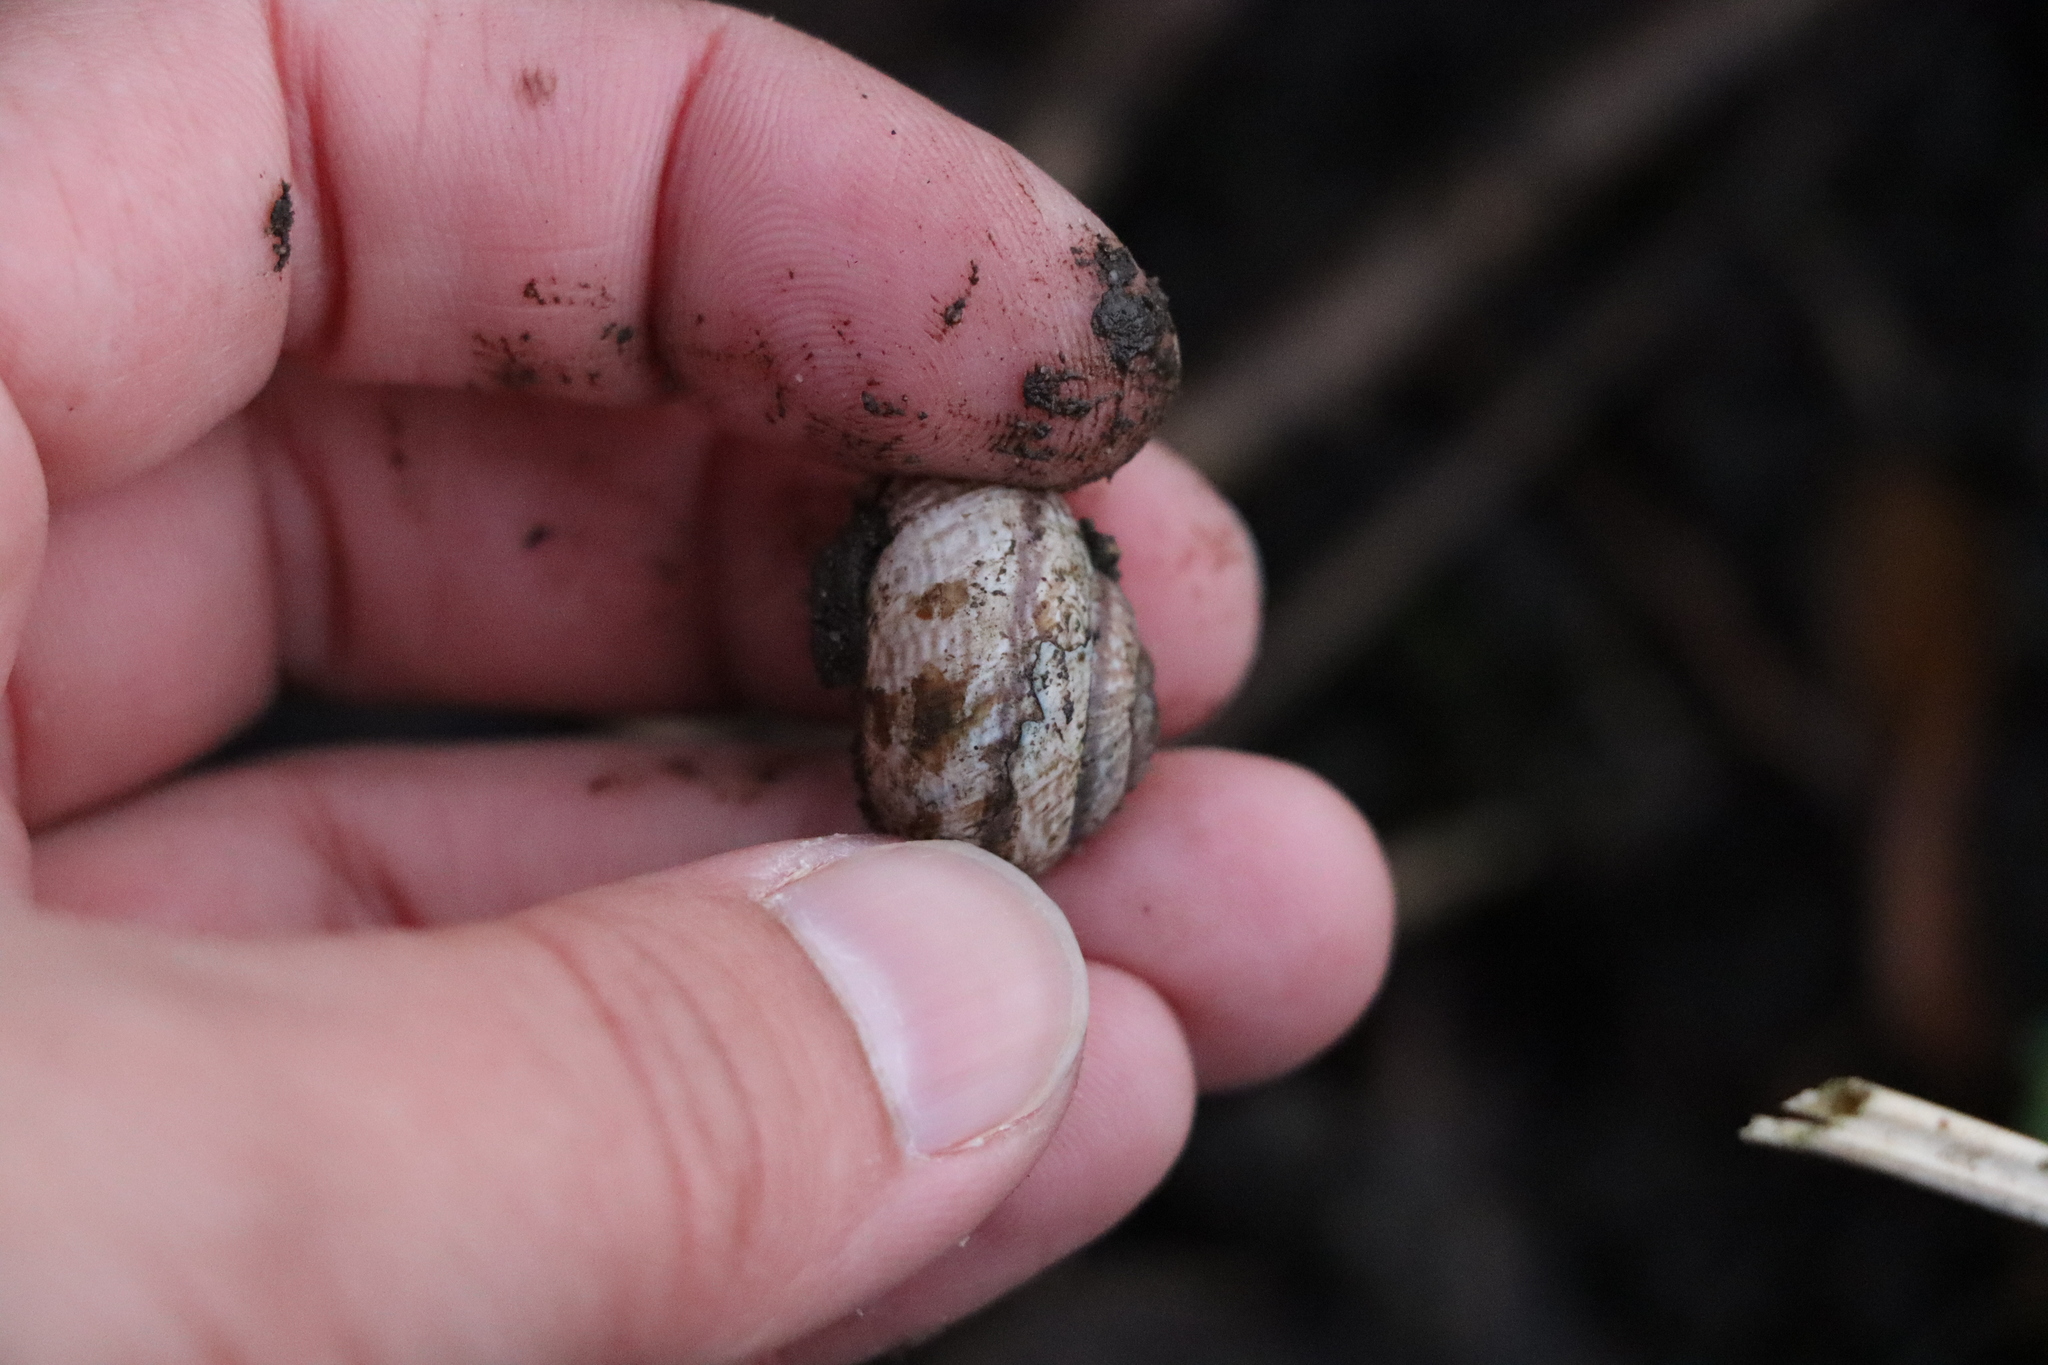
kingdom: Animalia
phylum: Mollusca
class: Gastropoda
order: Stylommatophora
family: Helicidae
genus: Arianta
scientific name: Arianta arbustorum
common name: Copse snail
